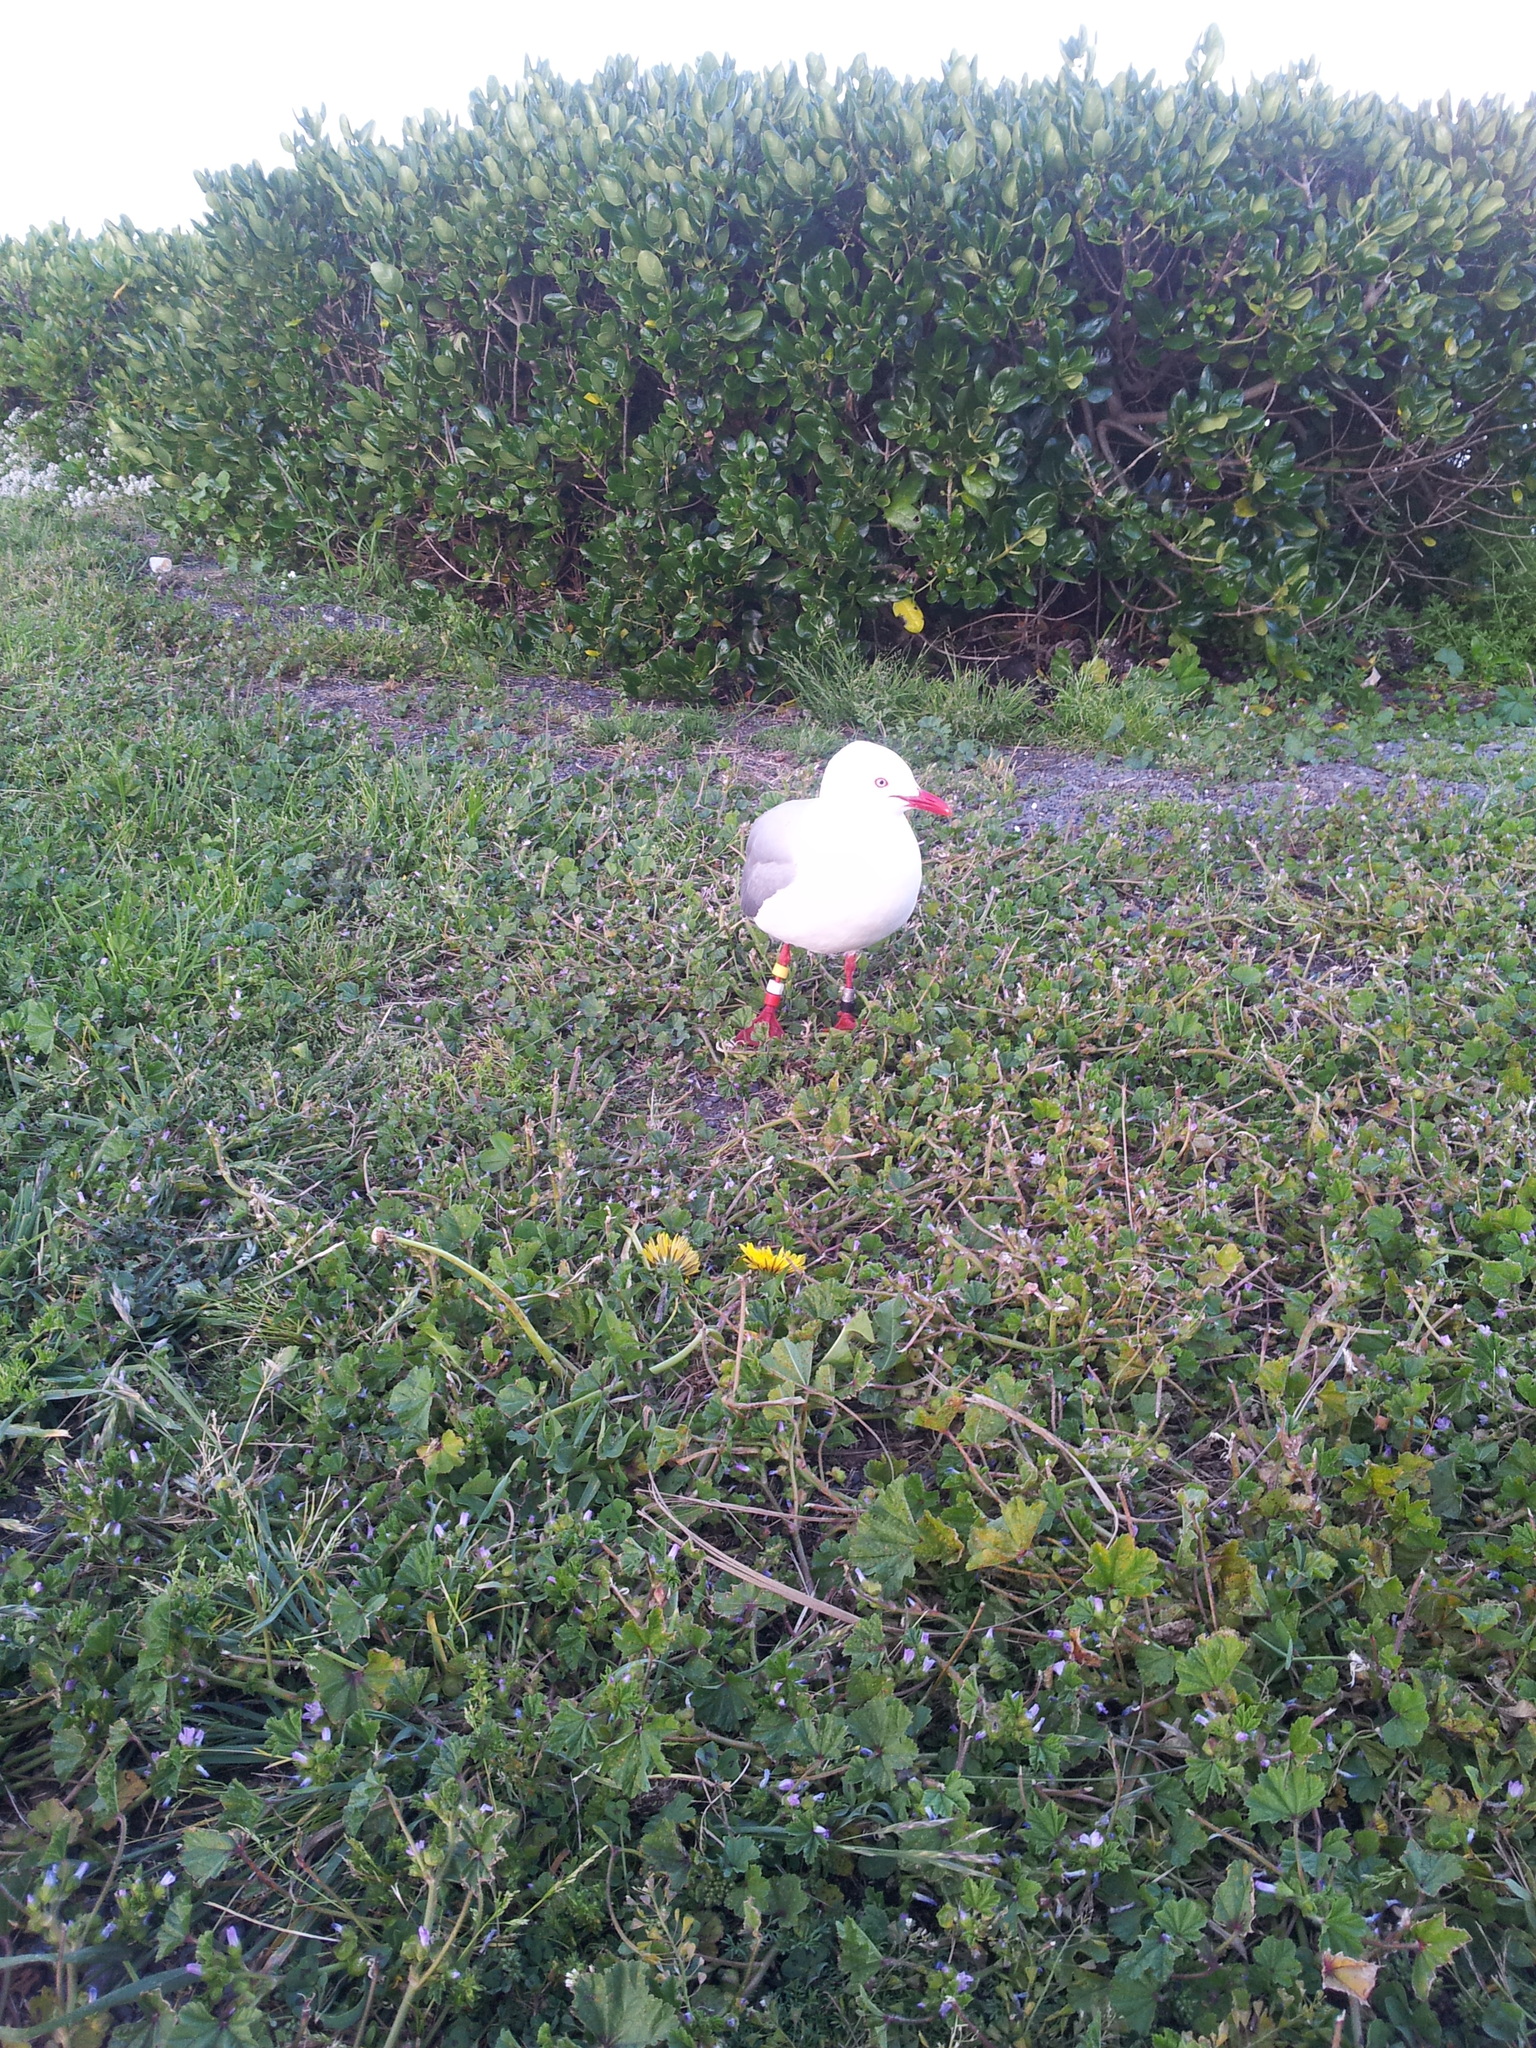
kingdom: Animalia
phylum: Chordata
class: Aves
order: Charadriiformes
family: Laridae
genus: Chroicocephalus
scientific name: Chroicocephalus novaehollandiae
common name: Silver gull
